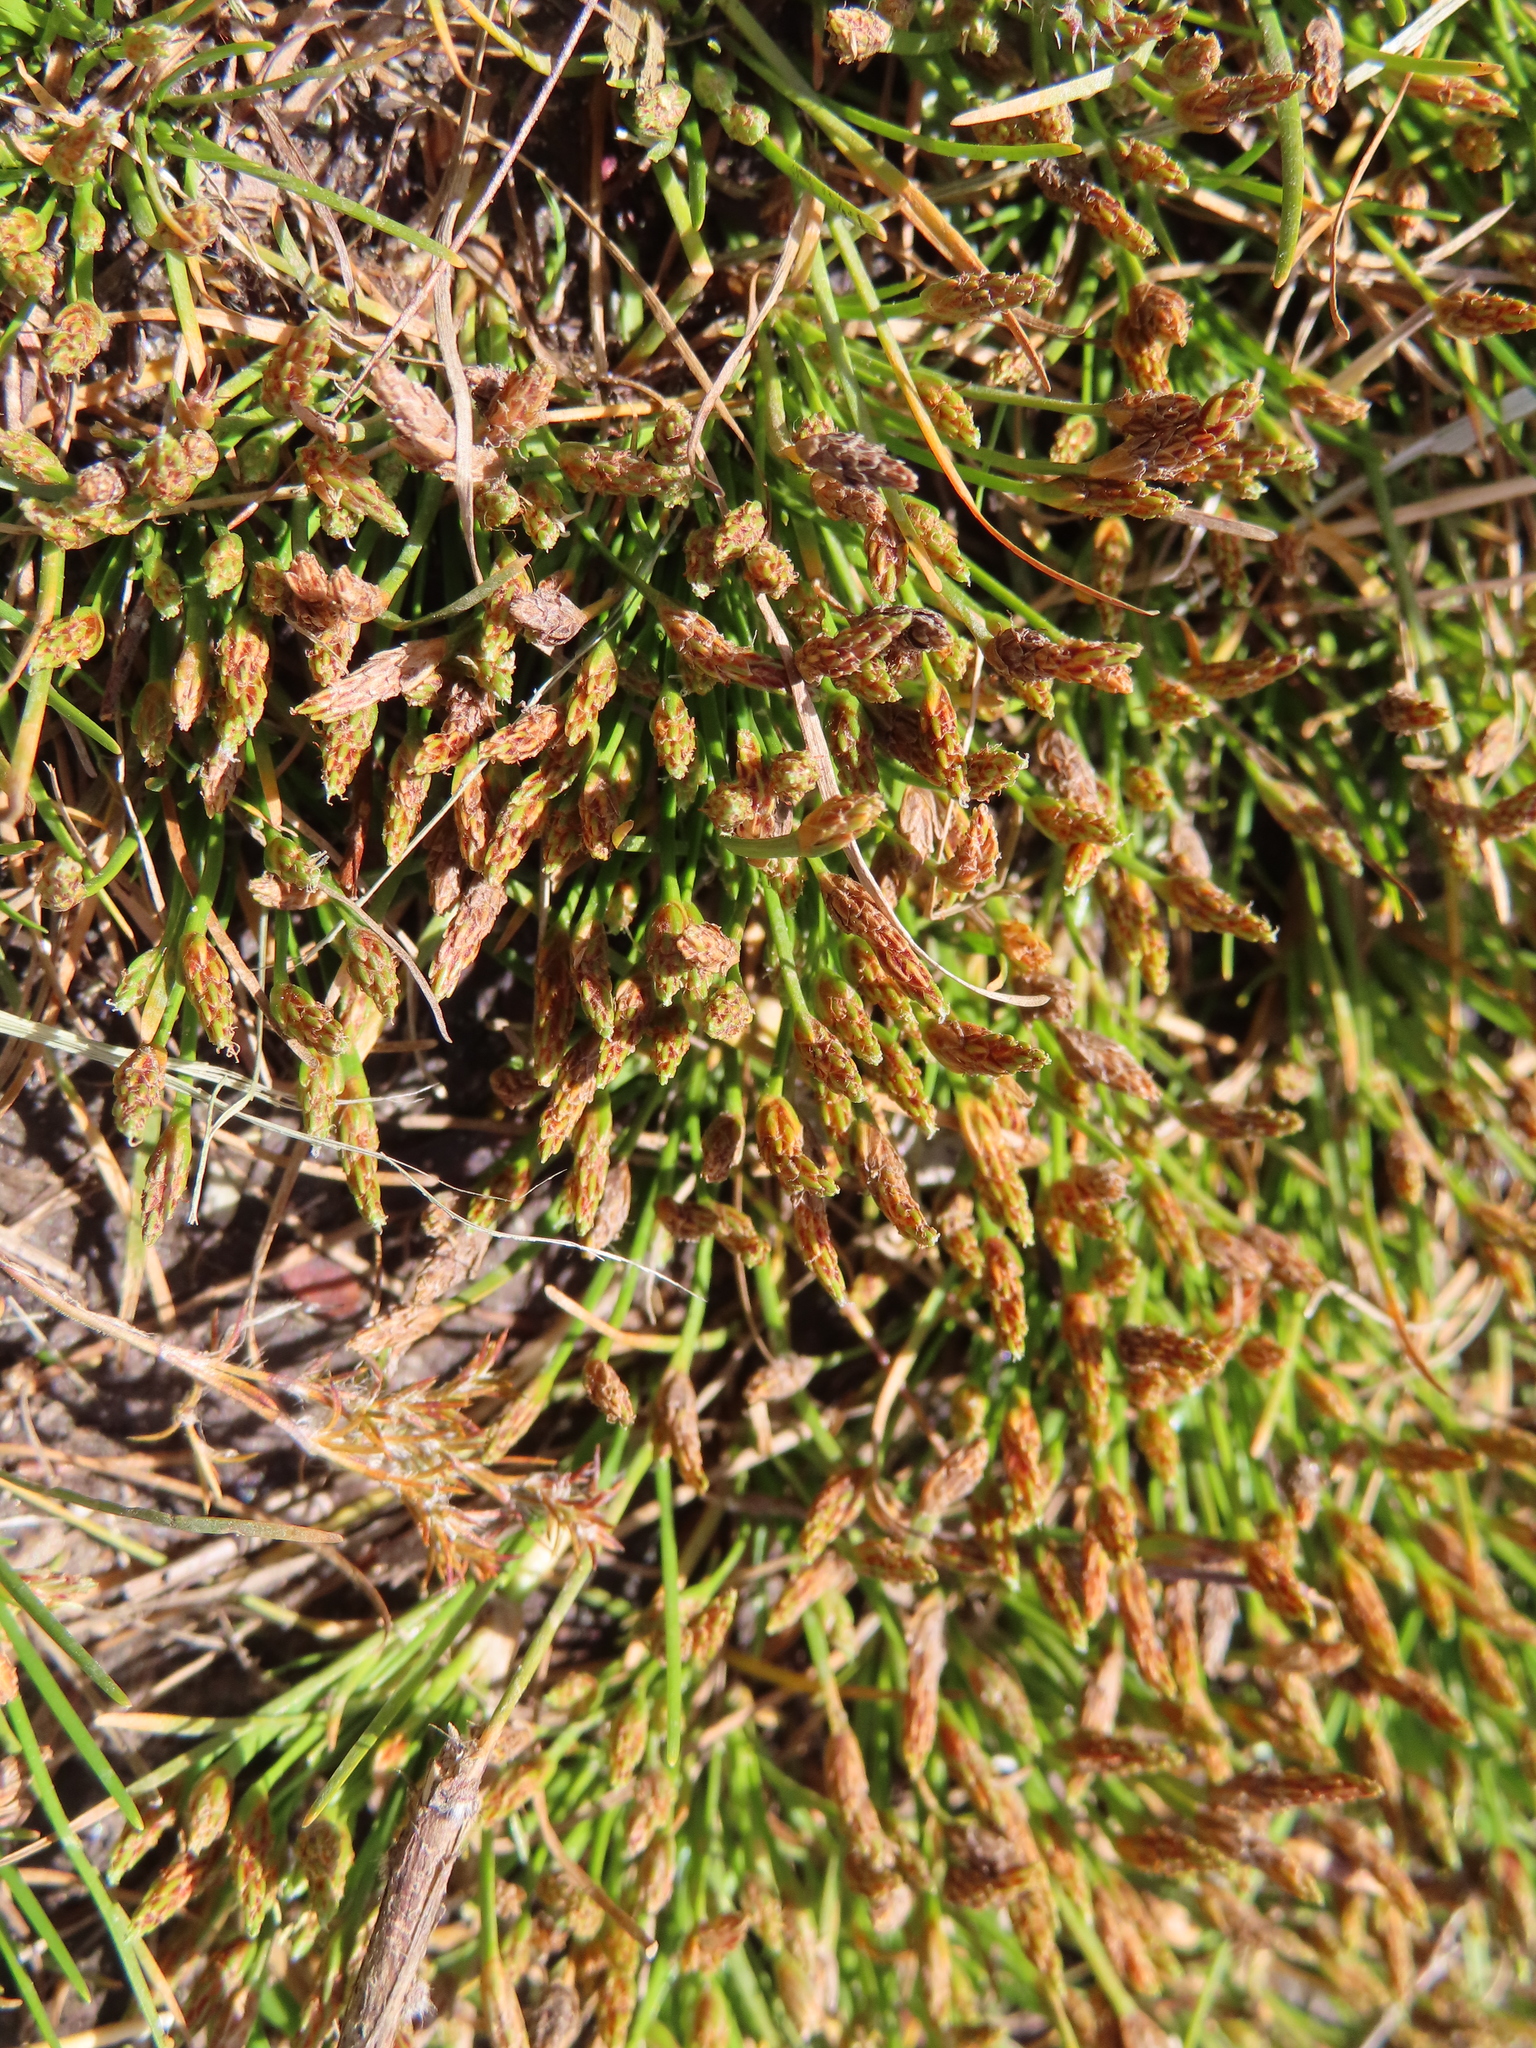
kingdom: Plantae
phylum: Tracheophyta
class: Liliopsida
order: Poales
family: Cyperaceae
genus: Isolepis
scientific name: Isolepis ludwigii
